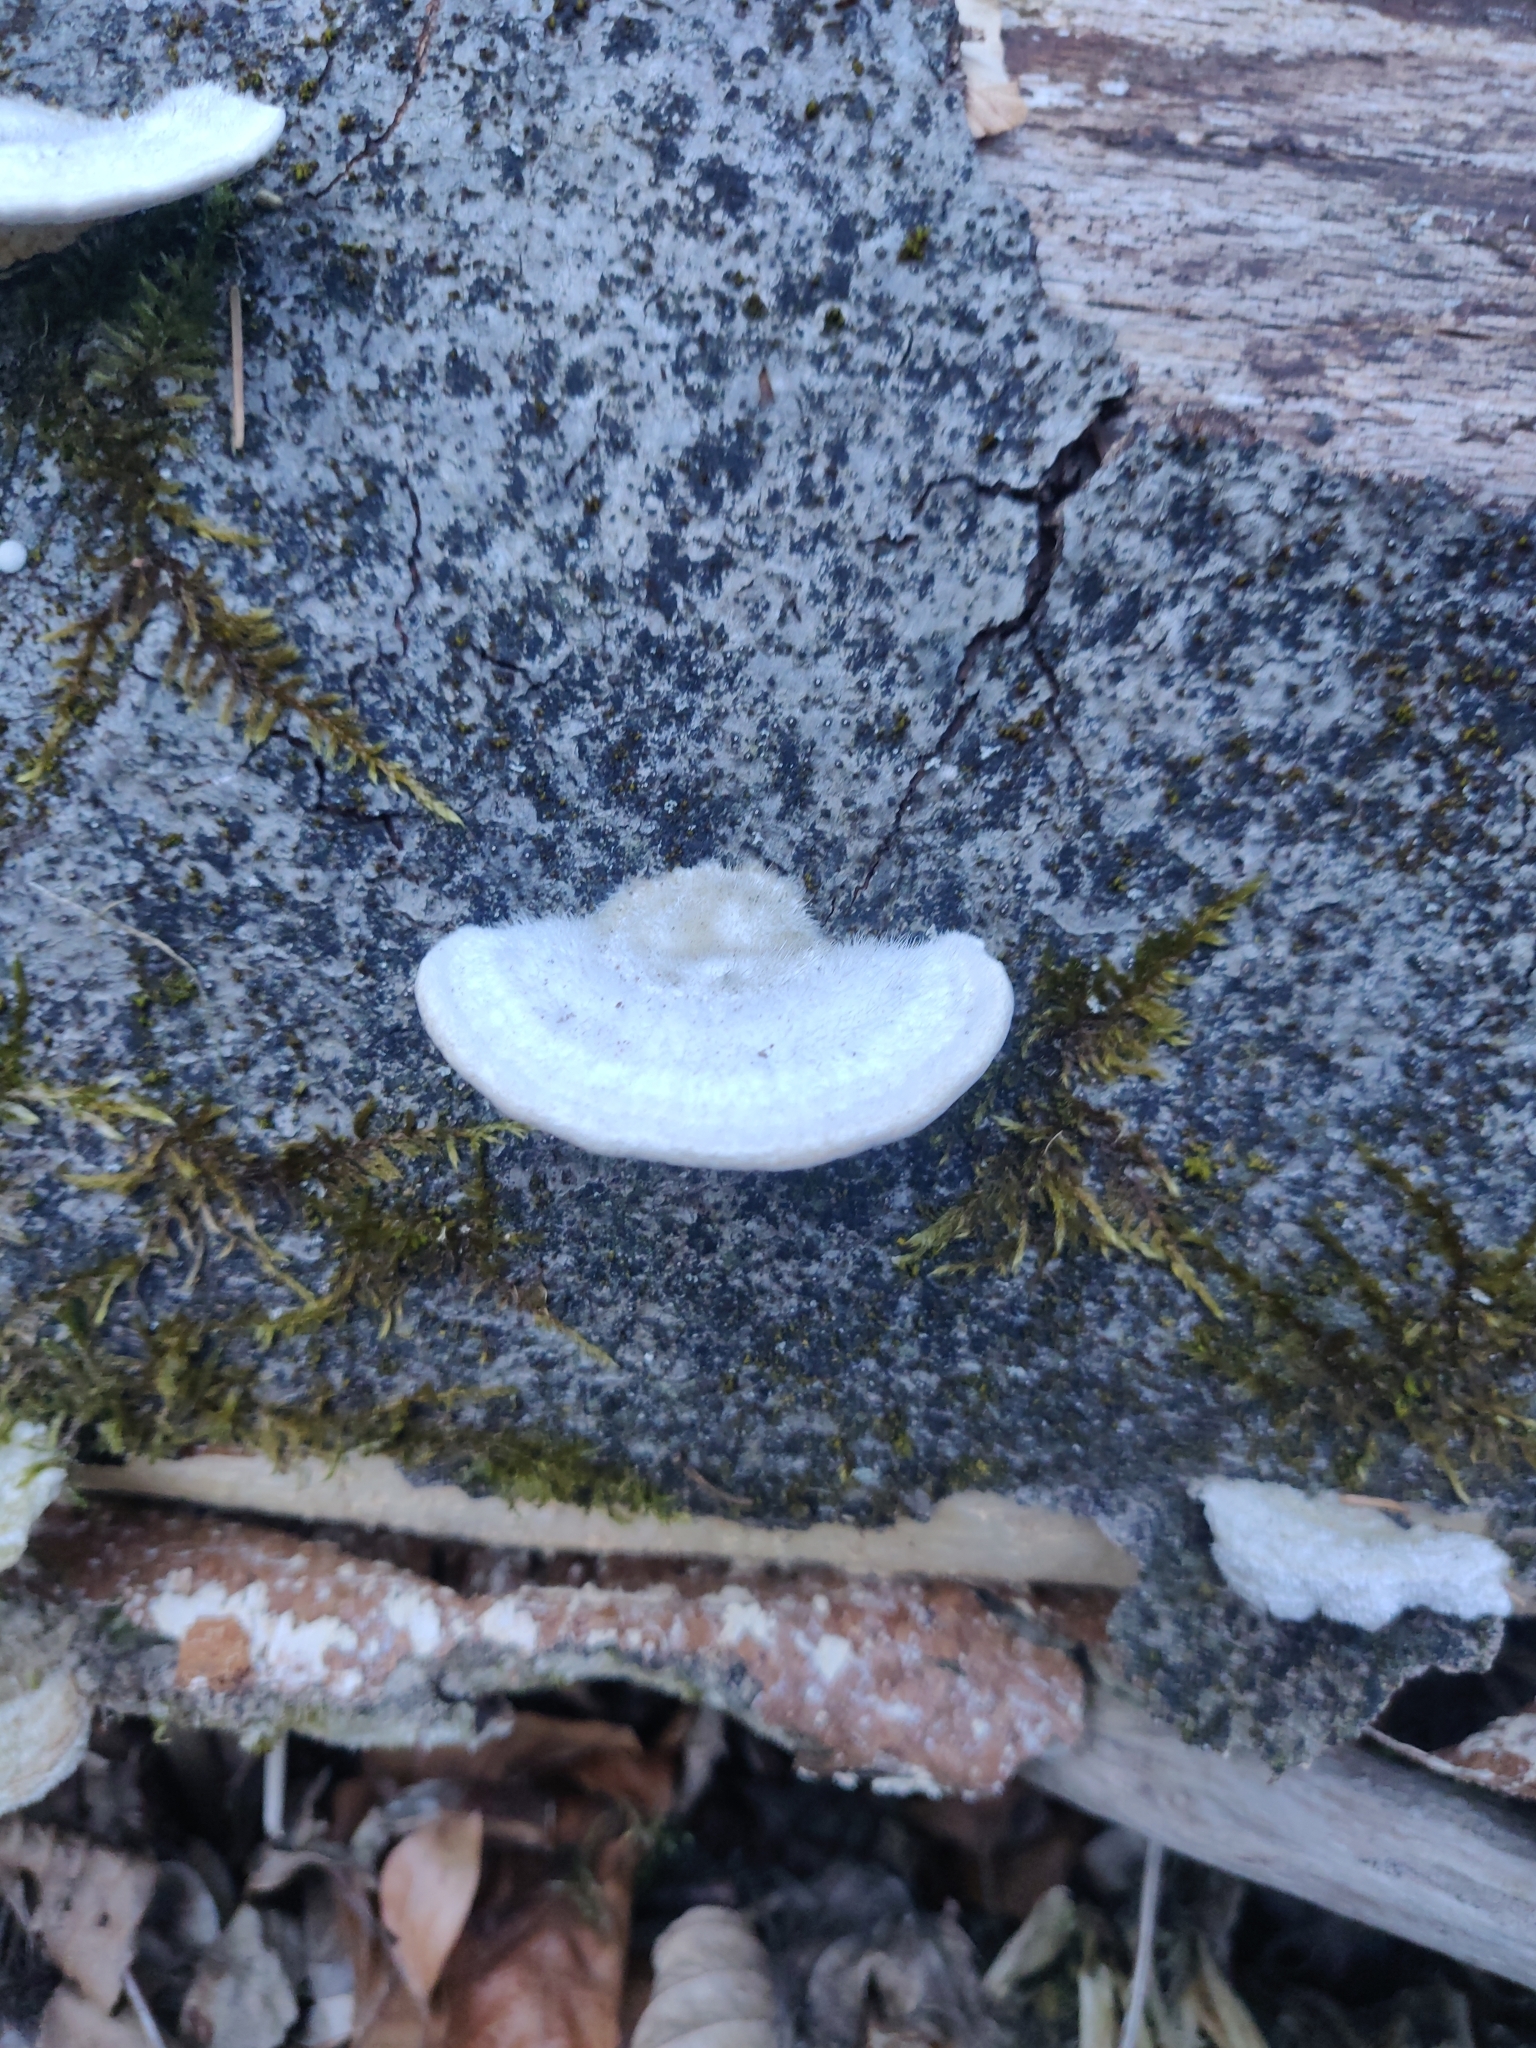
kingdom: Fungi
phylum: Basidiomycota
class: Agaricomycetes
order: Polyporales
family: Polyporaceae
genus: Trametes
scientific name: Trametes hirsuta
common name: Hairy bracket
